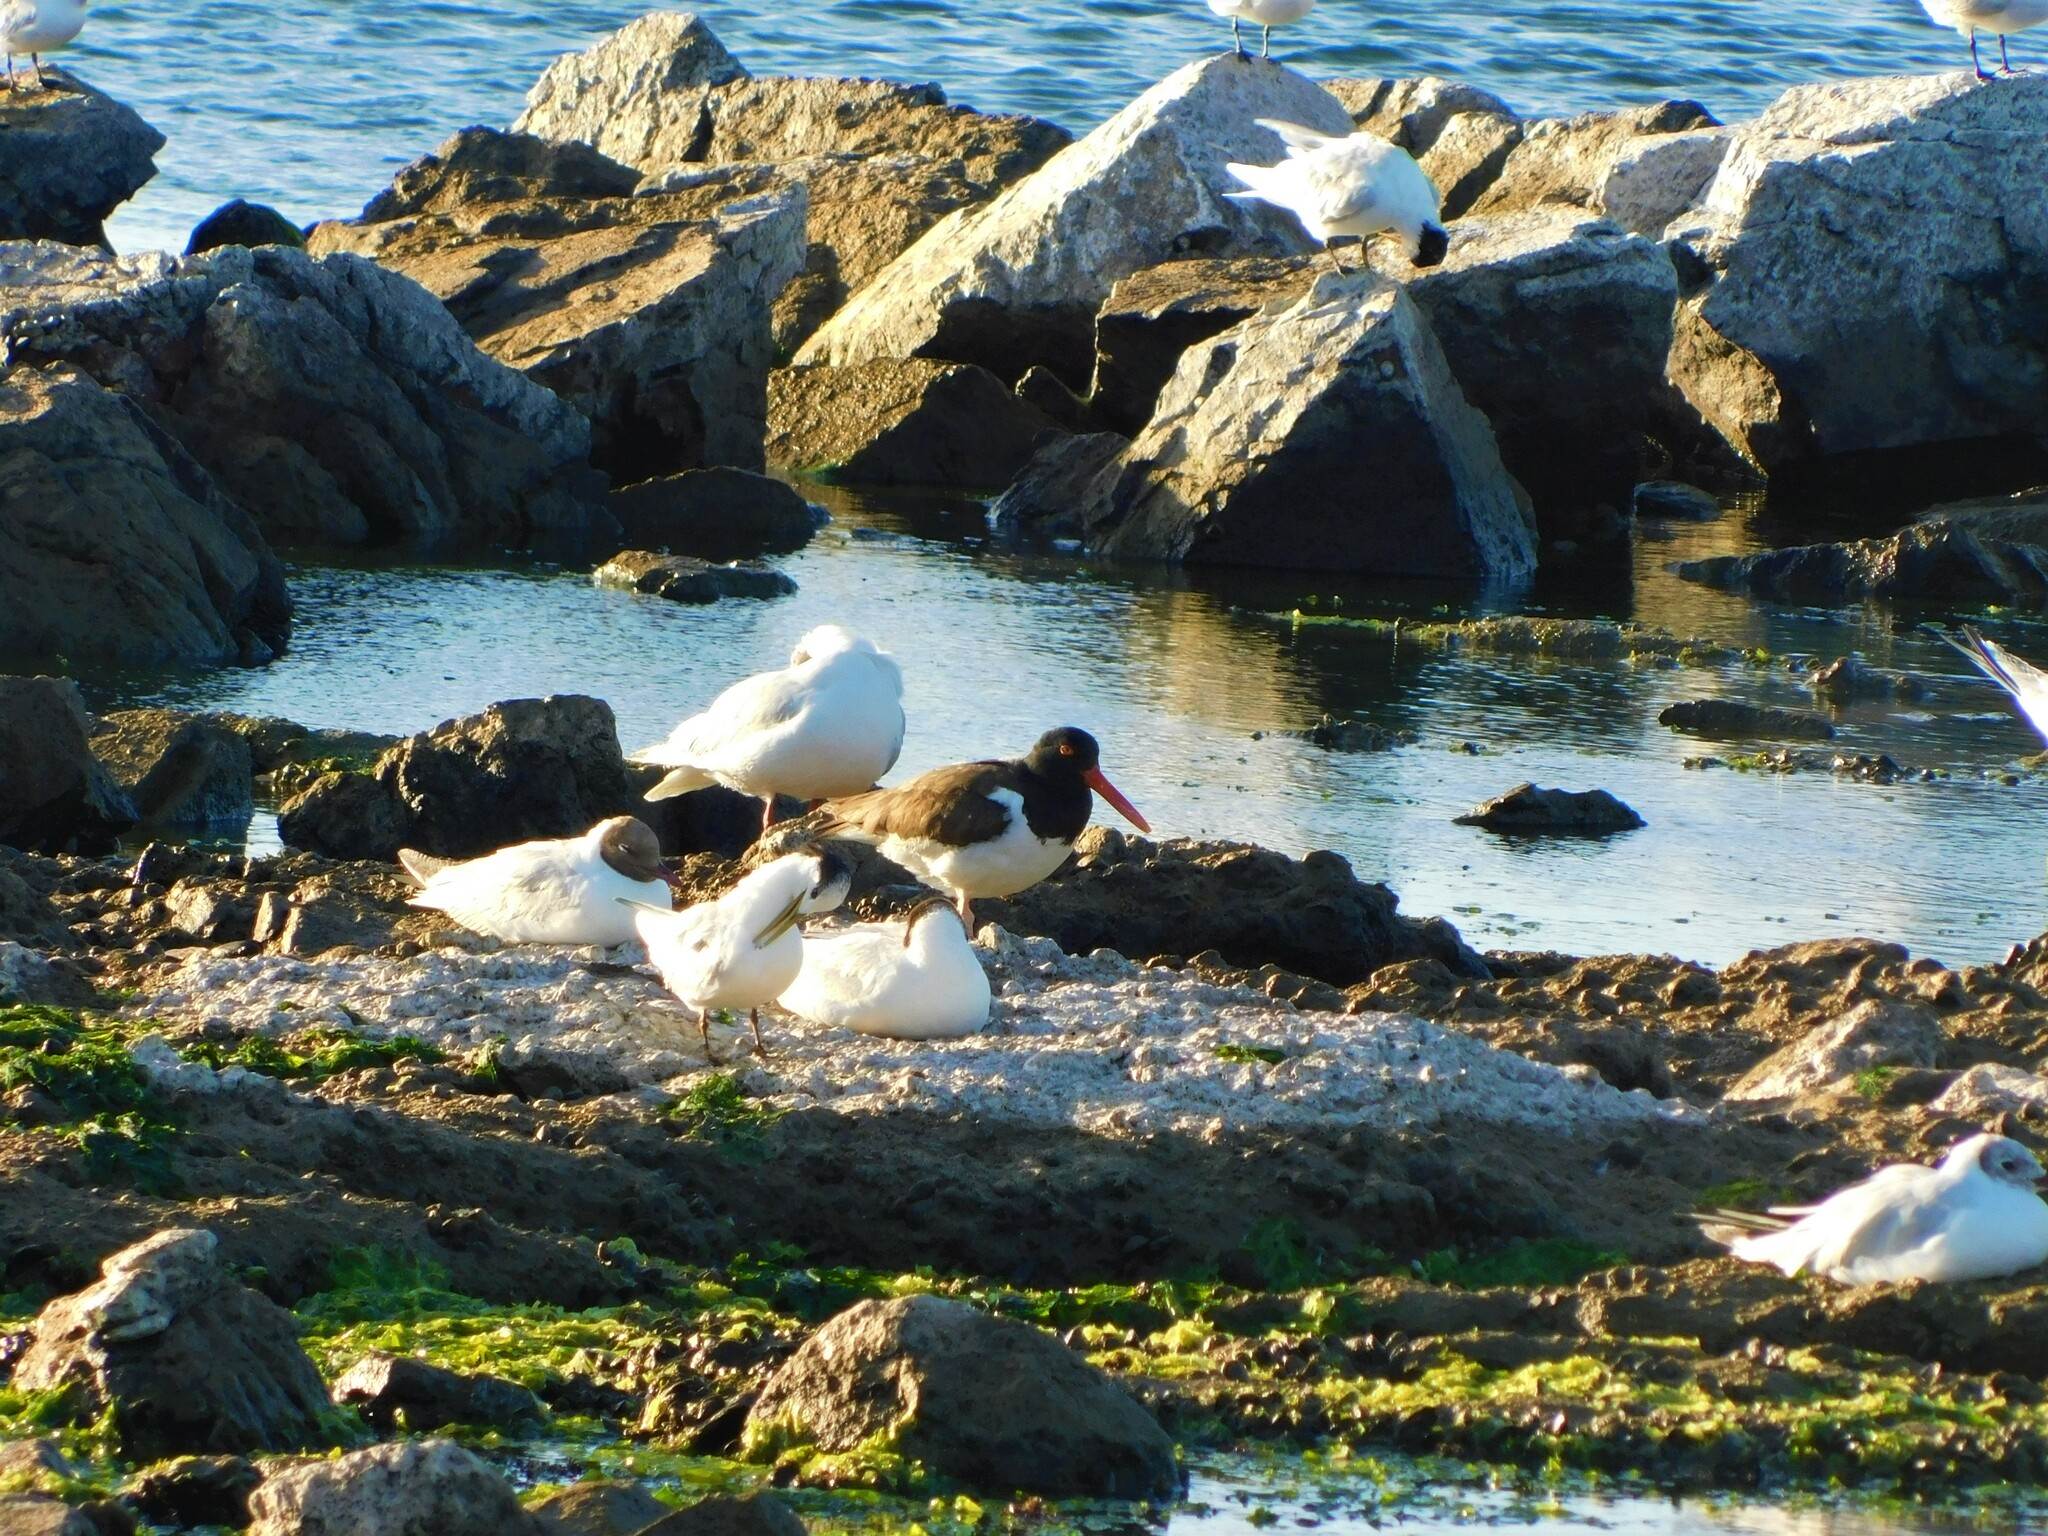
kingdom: Animalia
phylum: Chordata
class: Aves
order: Charadriiformes
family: Haematopodidae
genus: Haematopus
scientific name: Haematopus palliatus
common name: American oystercatcher
